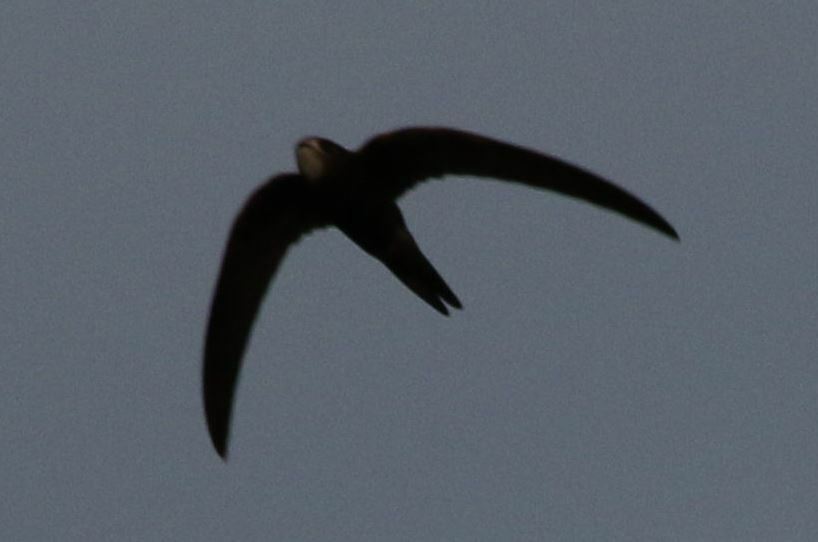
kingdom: Animalia
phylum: Chordata
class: Aves
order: Apodiformes
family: Apodidae
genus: Apus
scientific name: Apus apus
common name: Common swift
